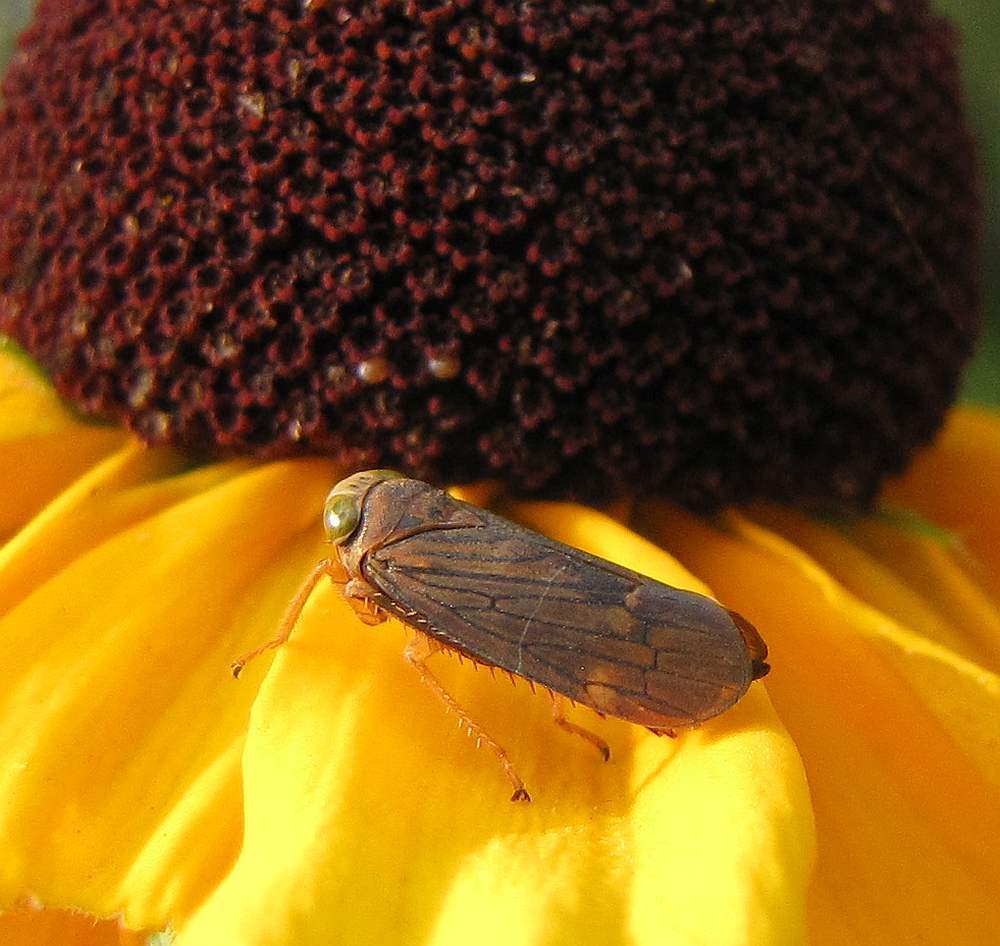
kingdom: Animalia
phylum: Arthropoda
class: Insecta
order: Hemiptera
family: Cicadellidae
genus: Jikradia
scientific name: Jikradia olitoria
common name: Coppery leafhopper
